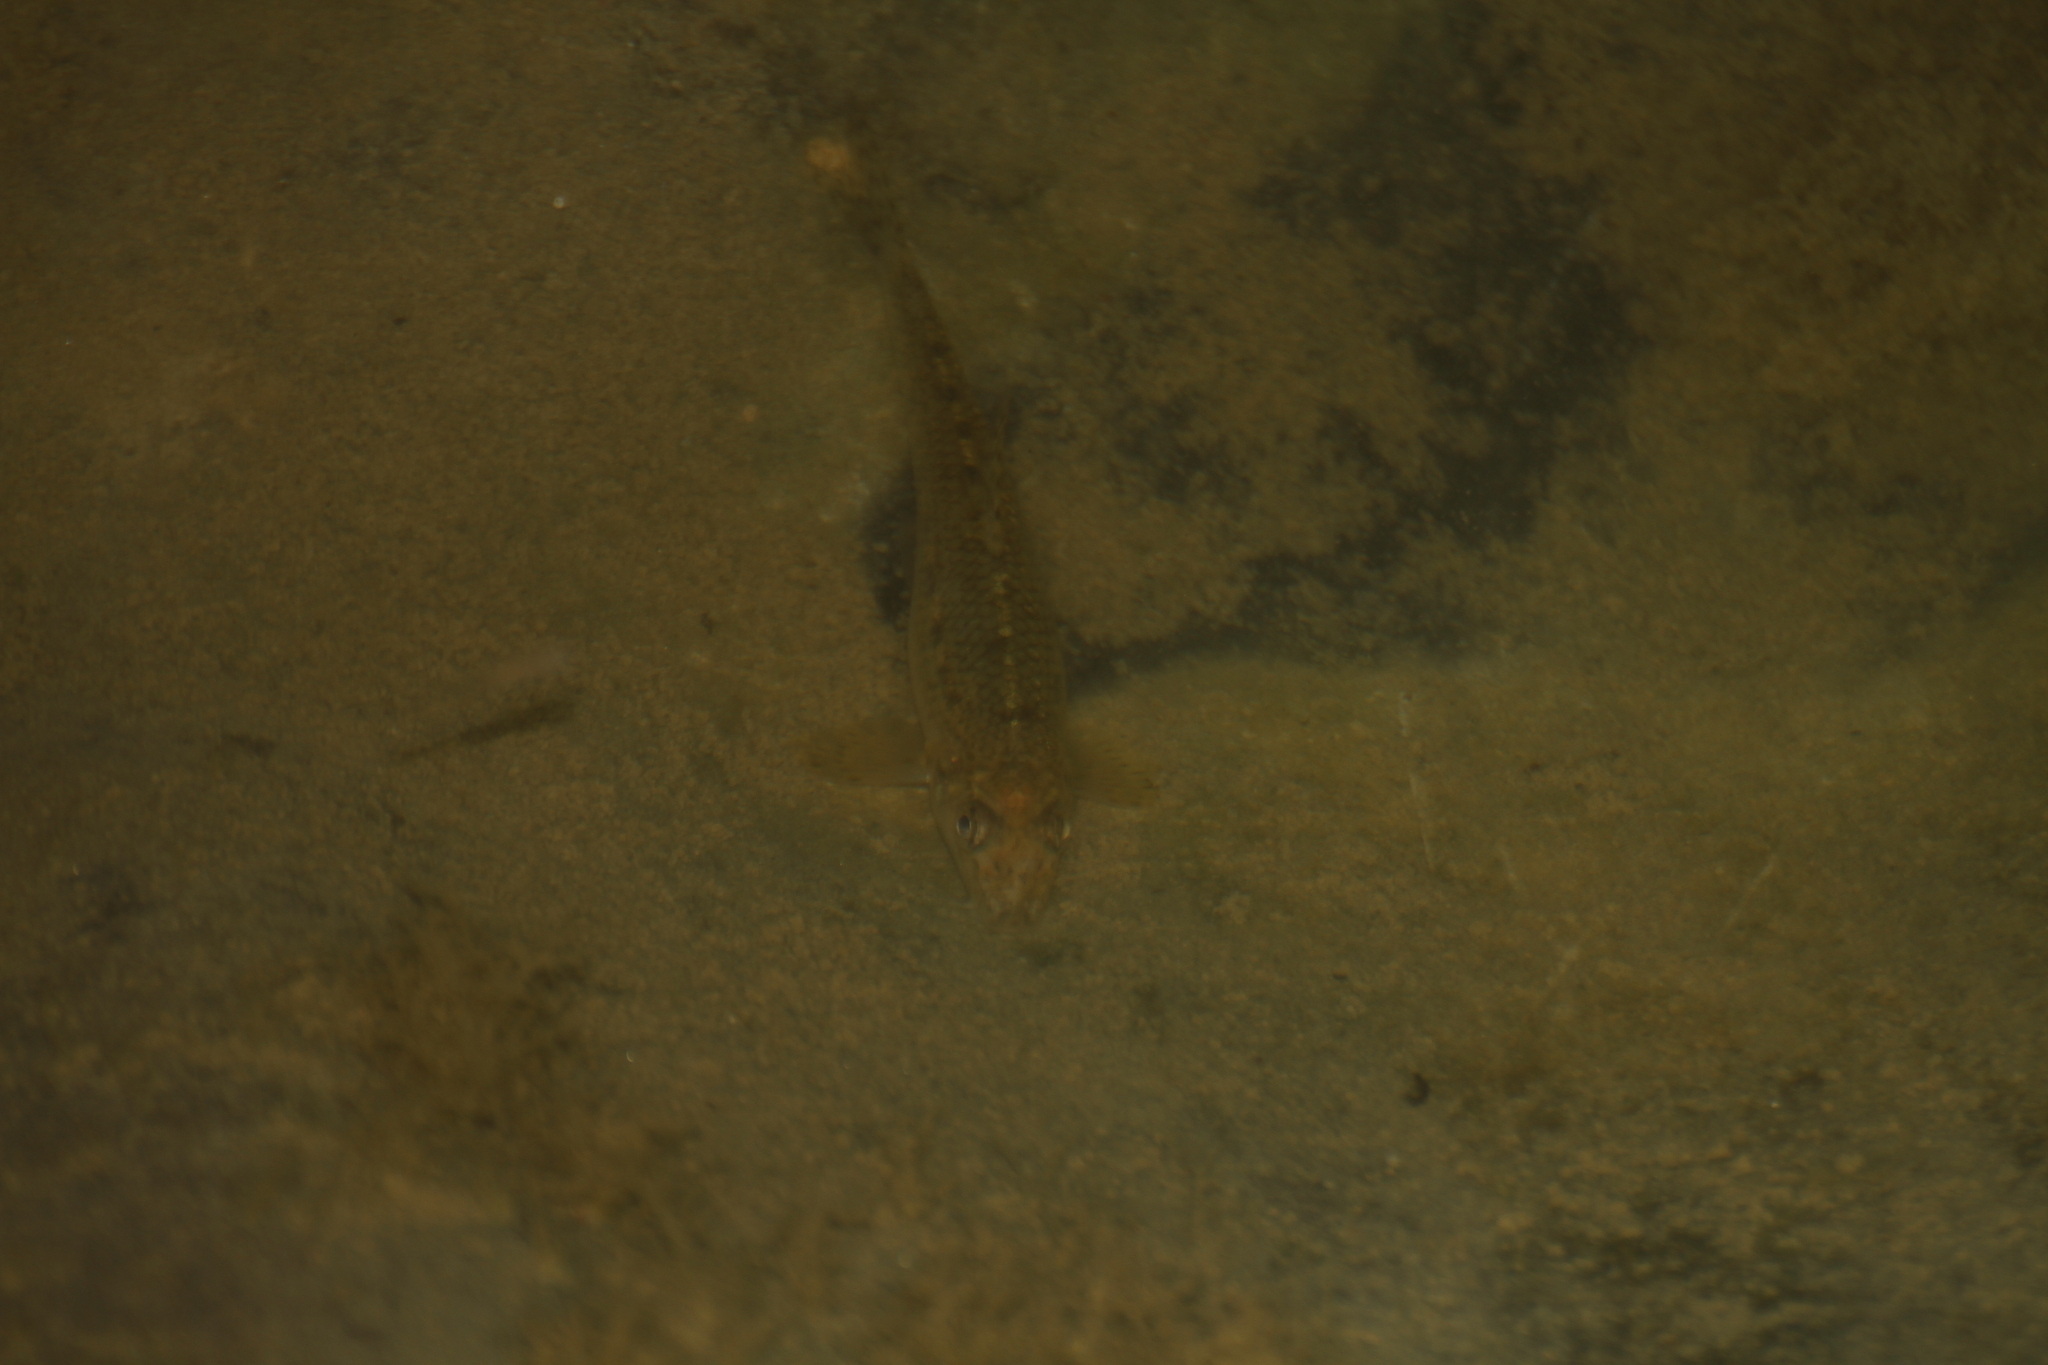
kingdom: Animalia
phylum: Chordata
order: Cypriniformes
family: Cyprinidae
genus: Gobio
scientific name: Gobio gobio
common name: Gudgeon
